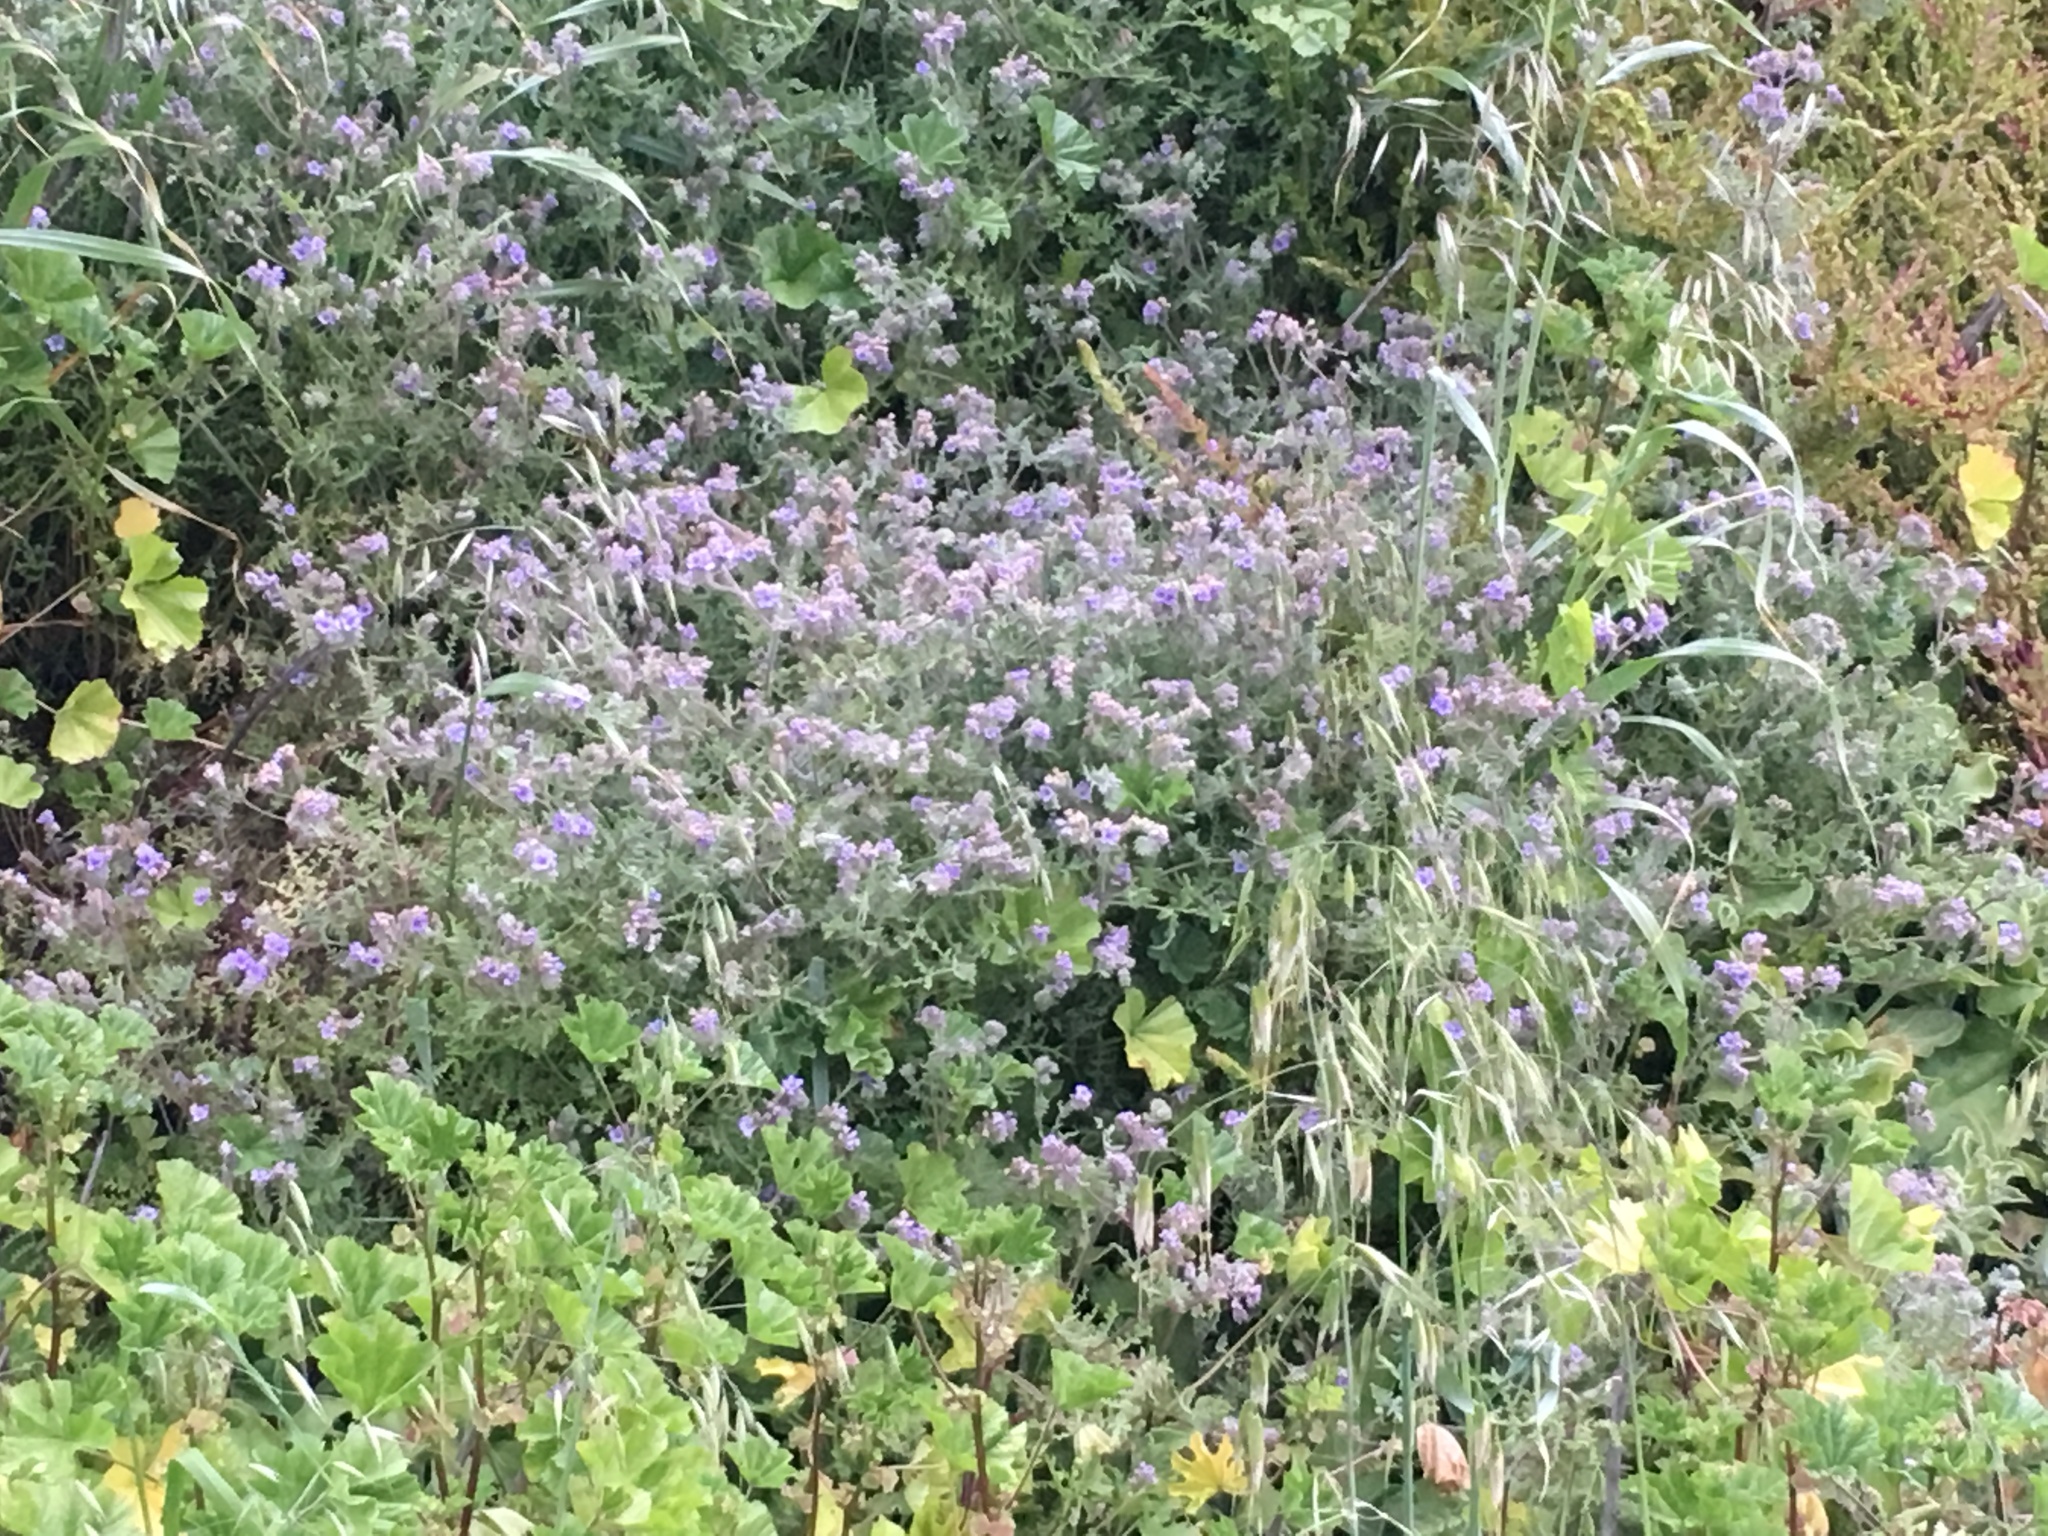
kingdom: Plantae
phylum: Tracheophyta
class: Magnoliopsida
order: Boraginales
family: Hydrophyllaceae
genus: Phacelia
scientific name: Phacelia distans
